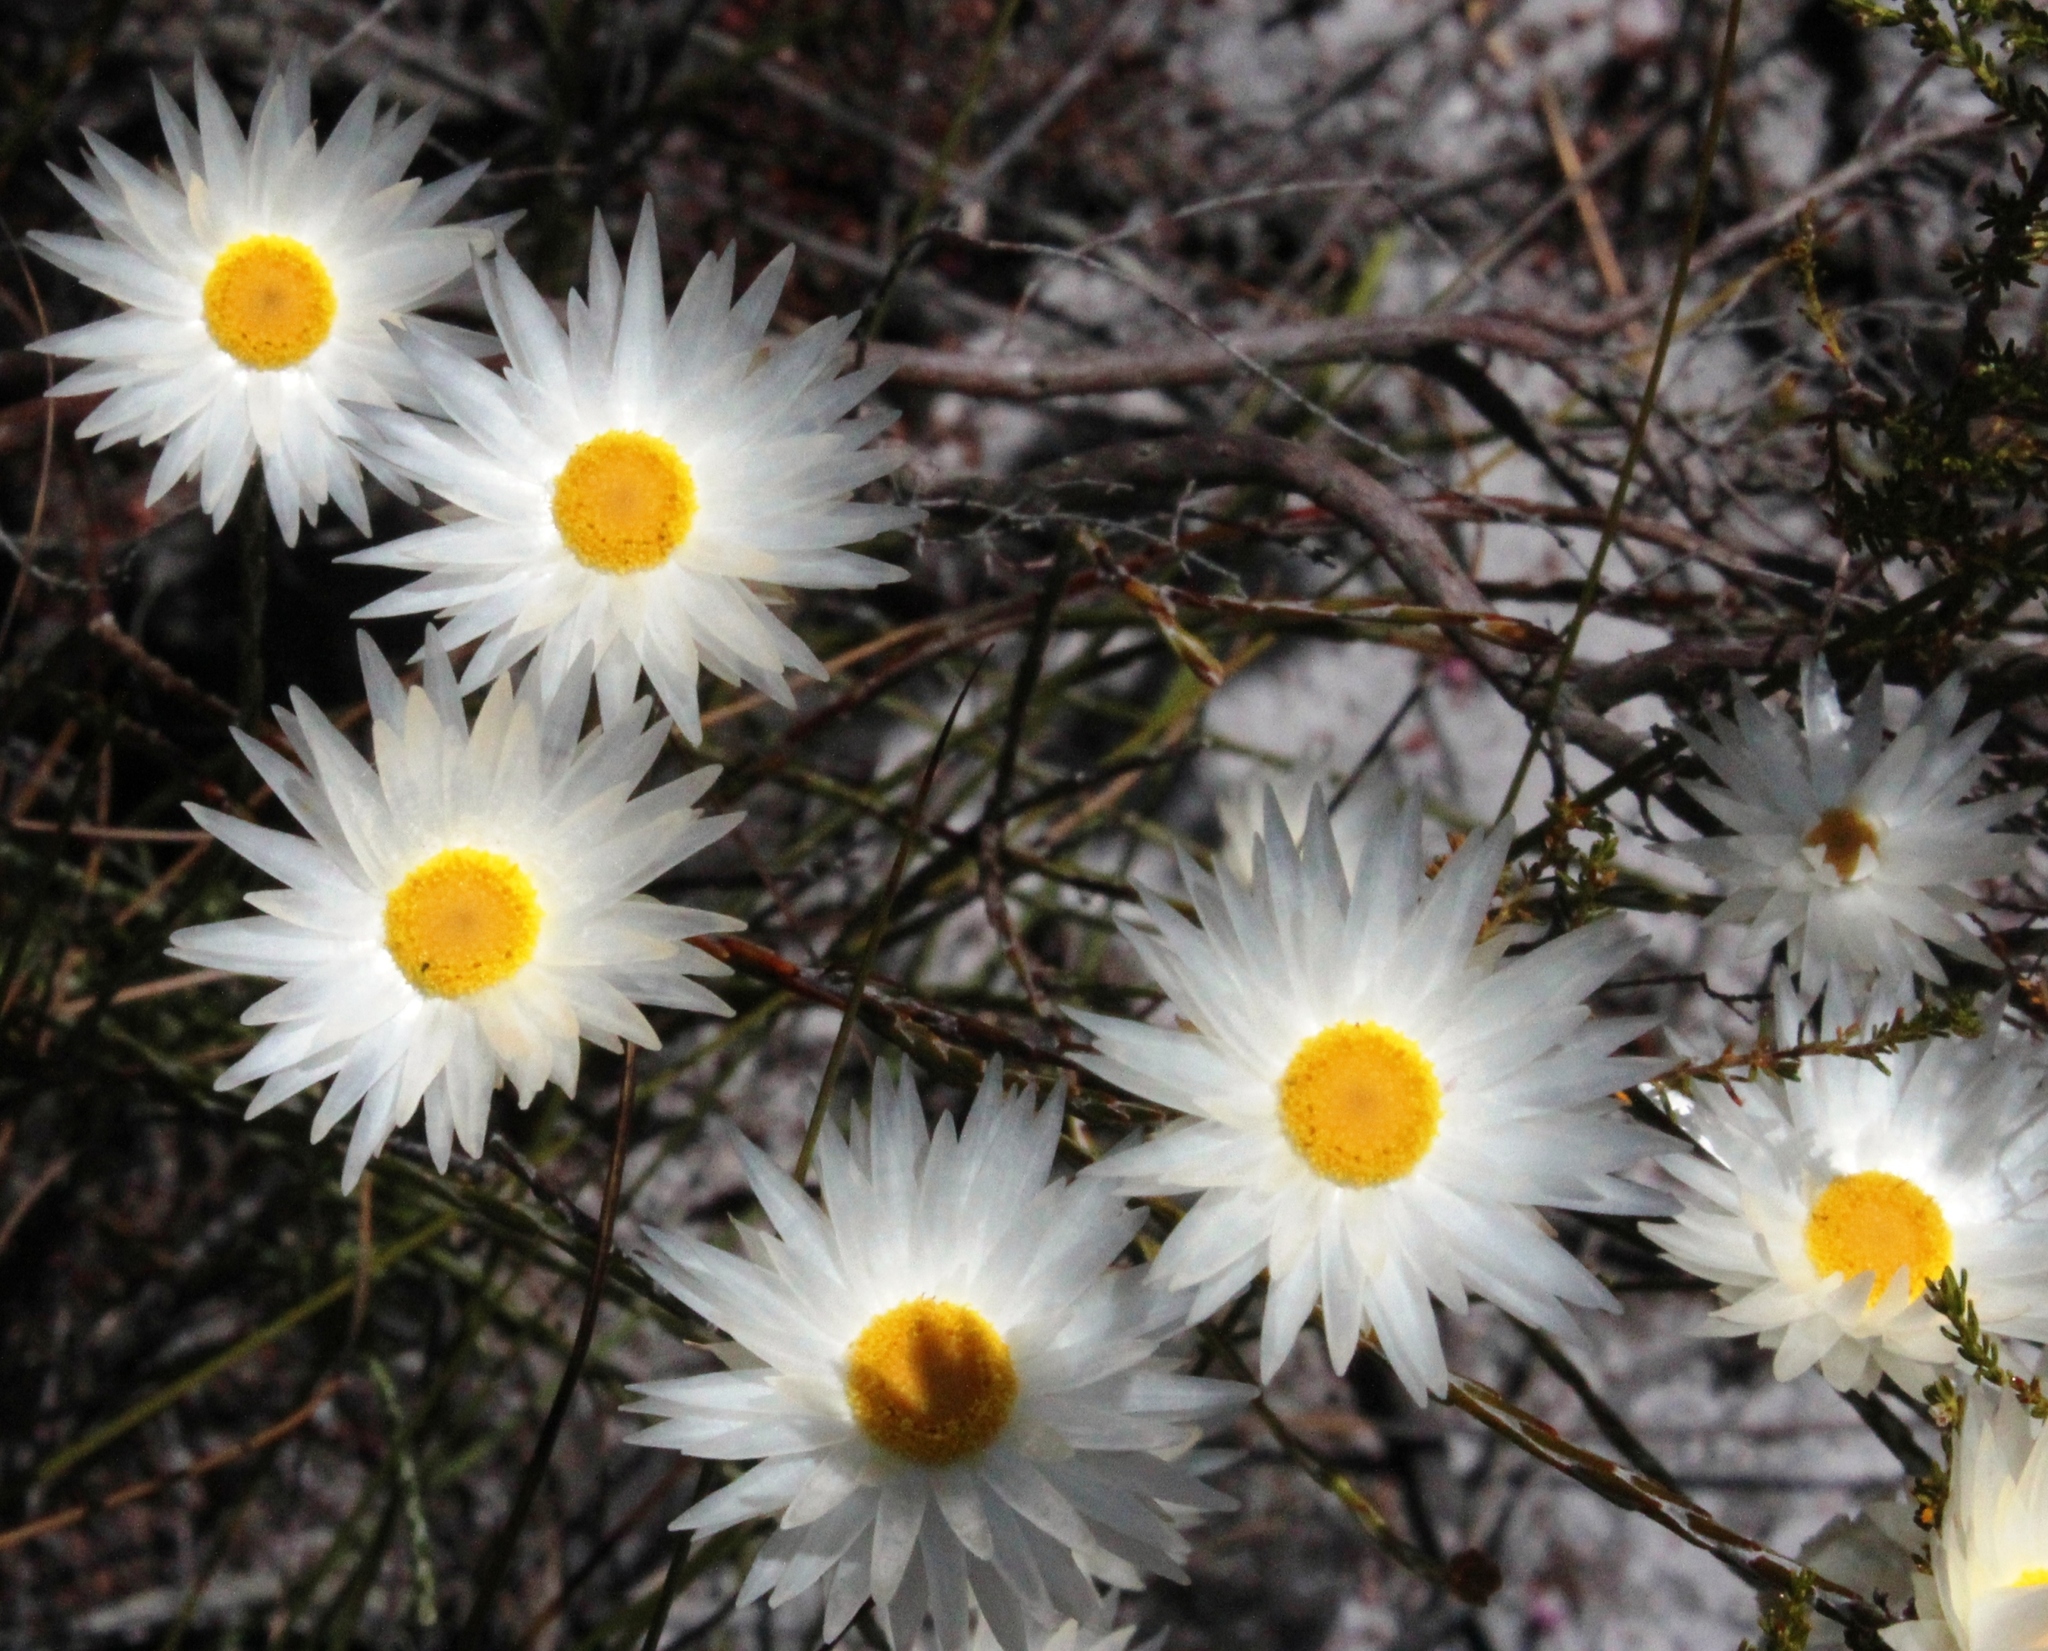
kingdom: Plantae
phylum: Tracheophyta
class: Magnoliopsida
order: Asterales
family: Asteraceae
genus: Edmondia
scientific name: Edmondia pinifolia
